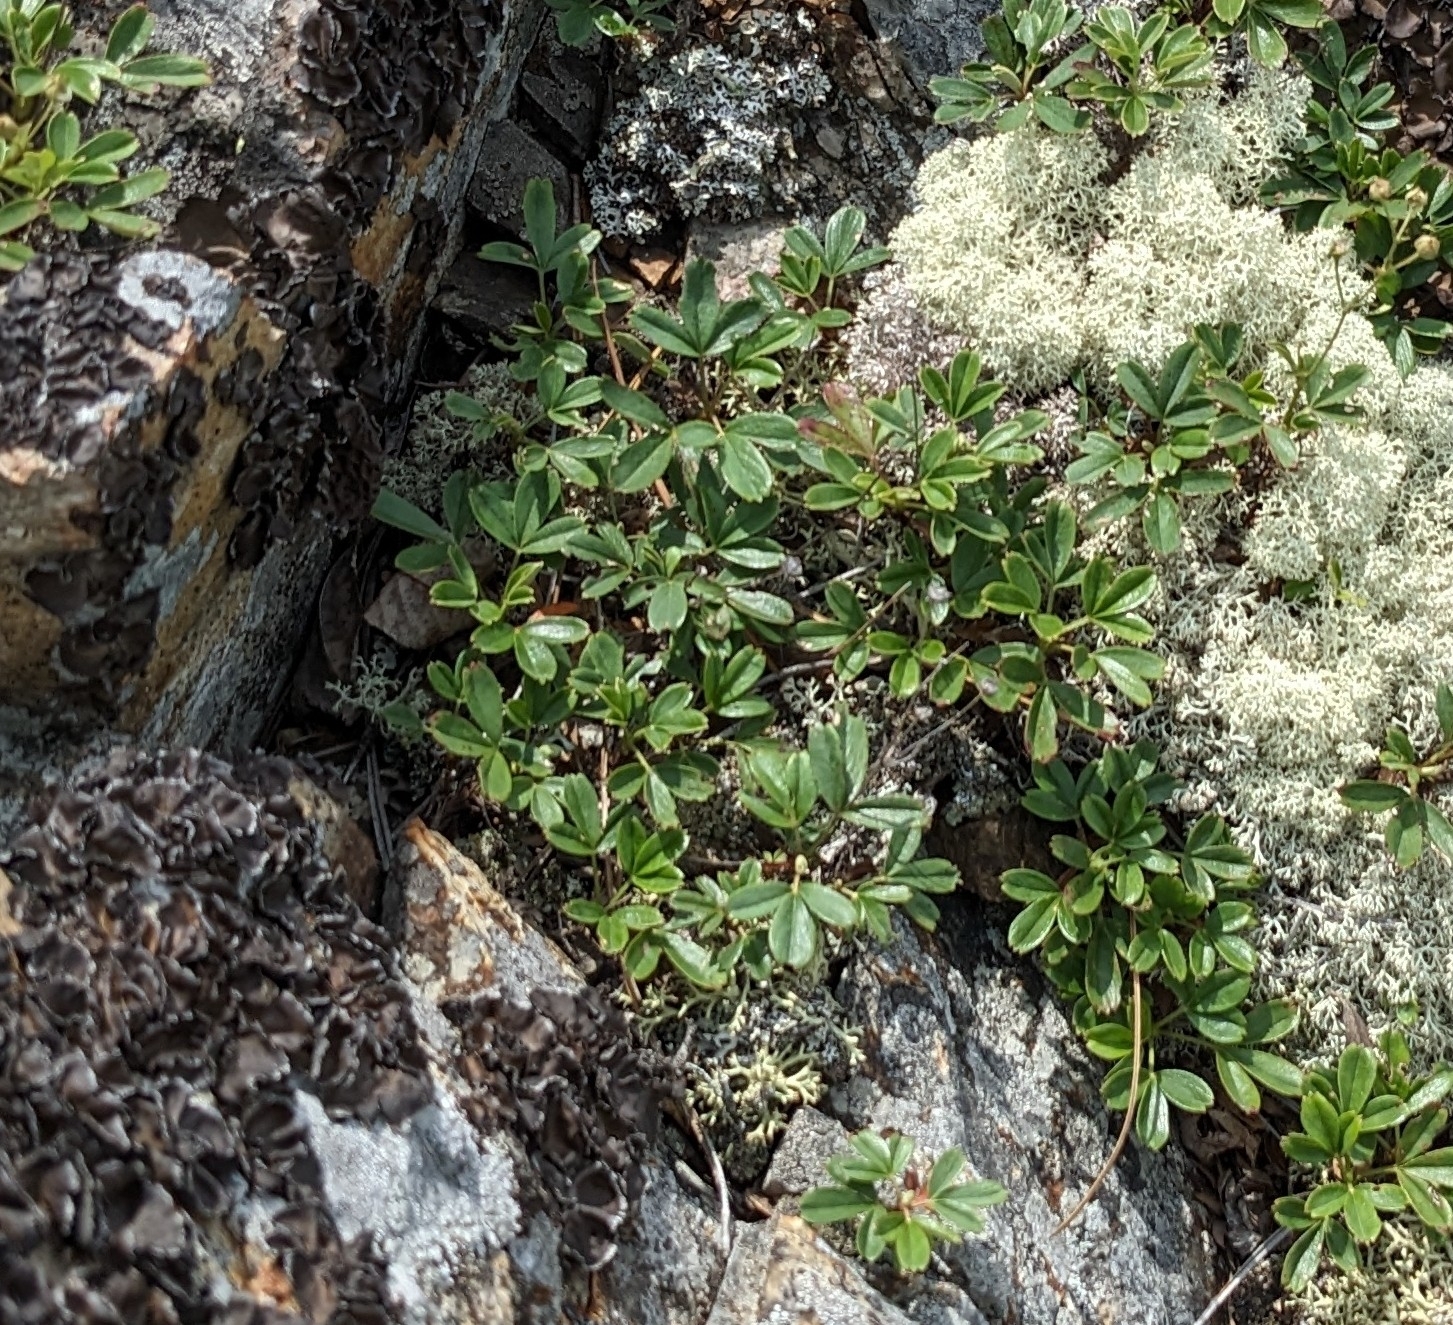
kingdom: Plantae
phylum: Tracheophyta
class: Magnoliopsida
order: Rosales
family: Rosaceae
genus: Sibbaldia
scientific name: Sibbaldia tridentata
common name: Three-toothed cinquefoil
